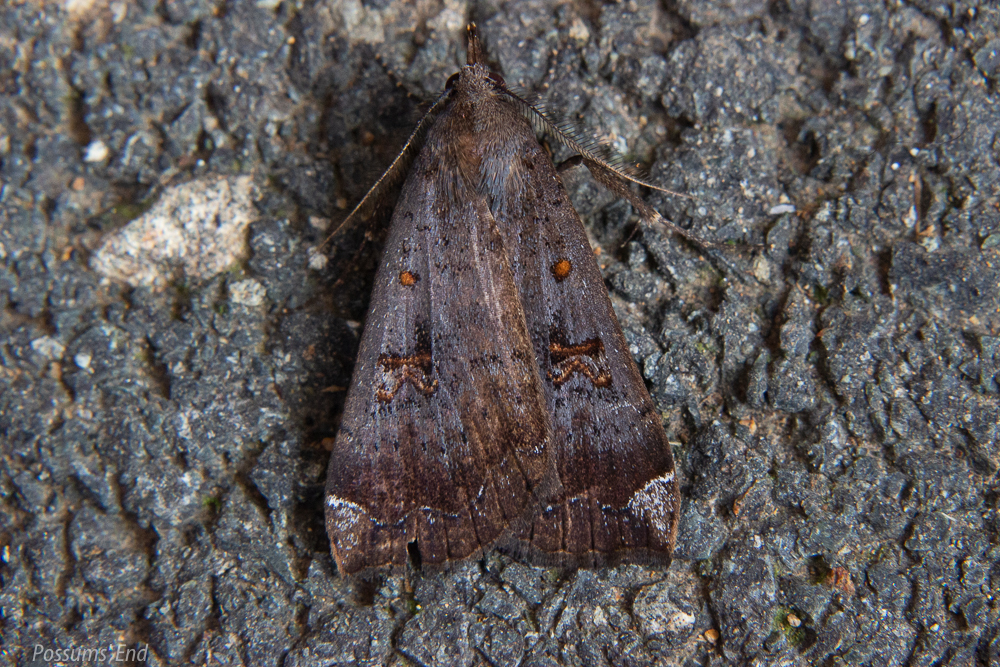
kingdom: Animalia
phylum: Arthropoda
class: Insecta
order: Lepidoptera
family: Erebidae
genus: Rhapsa
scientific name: Rhapsa scotosialis
